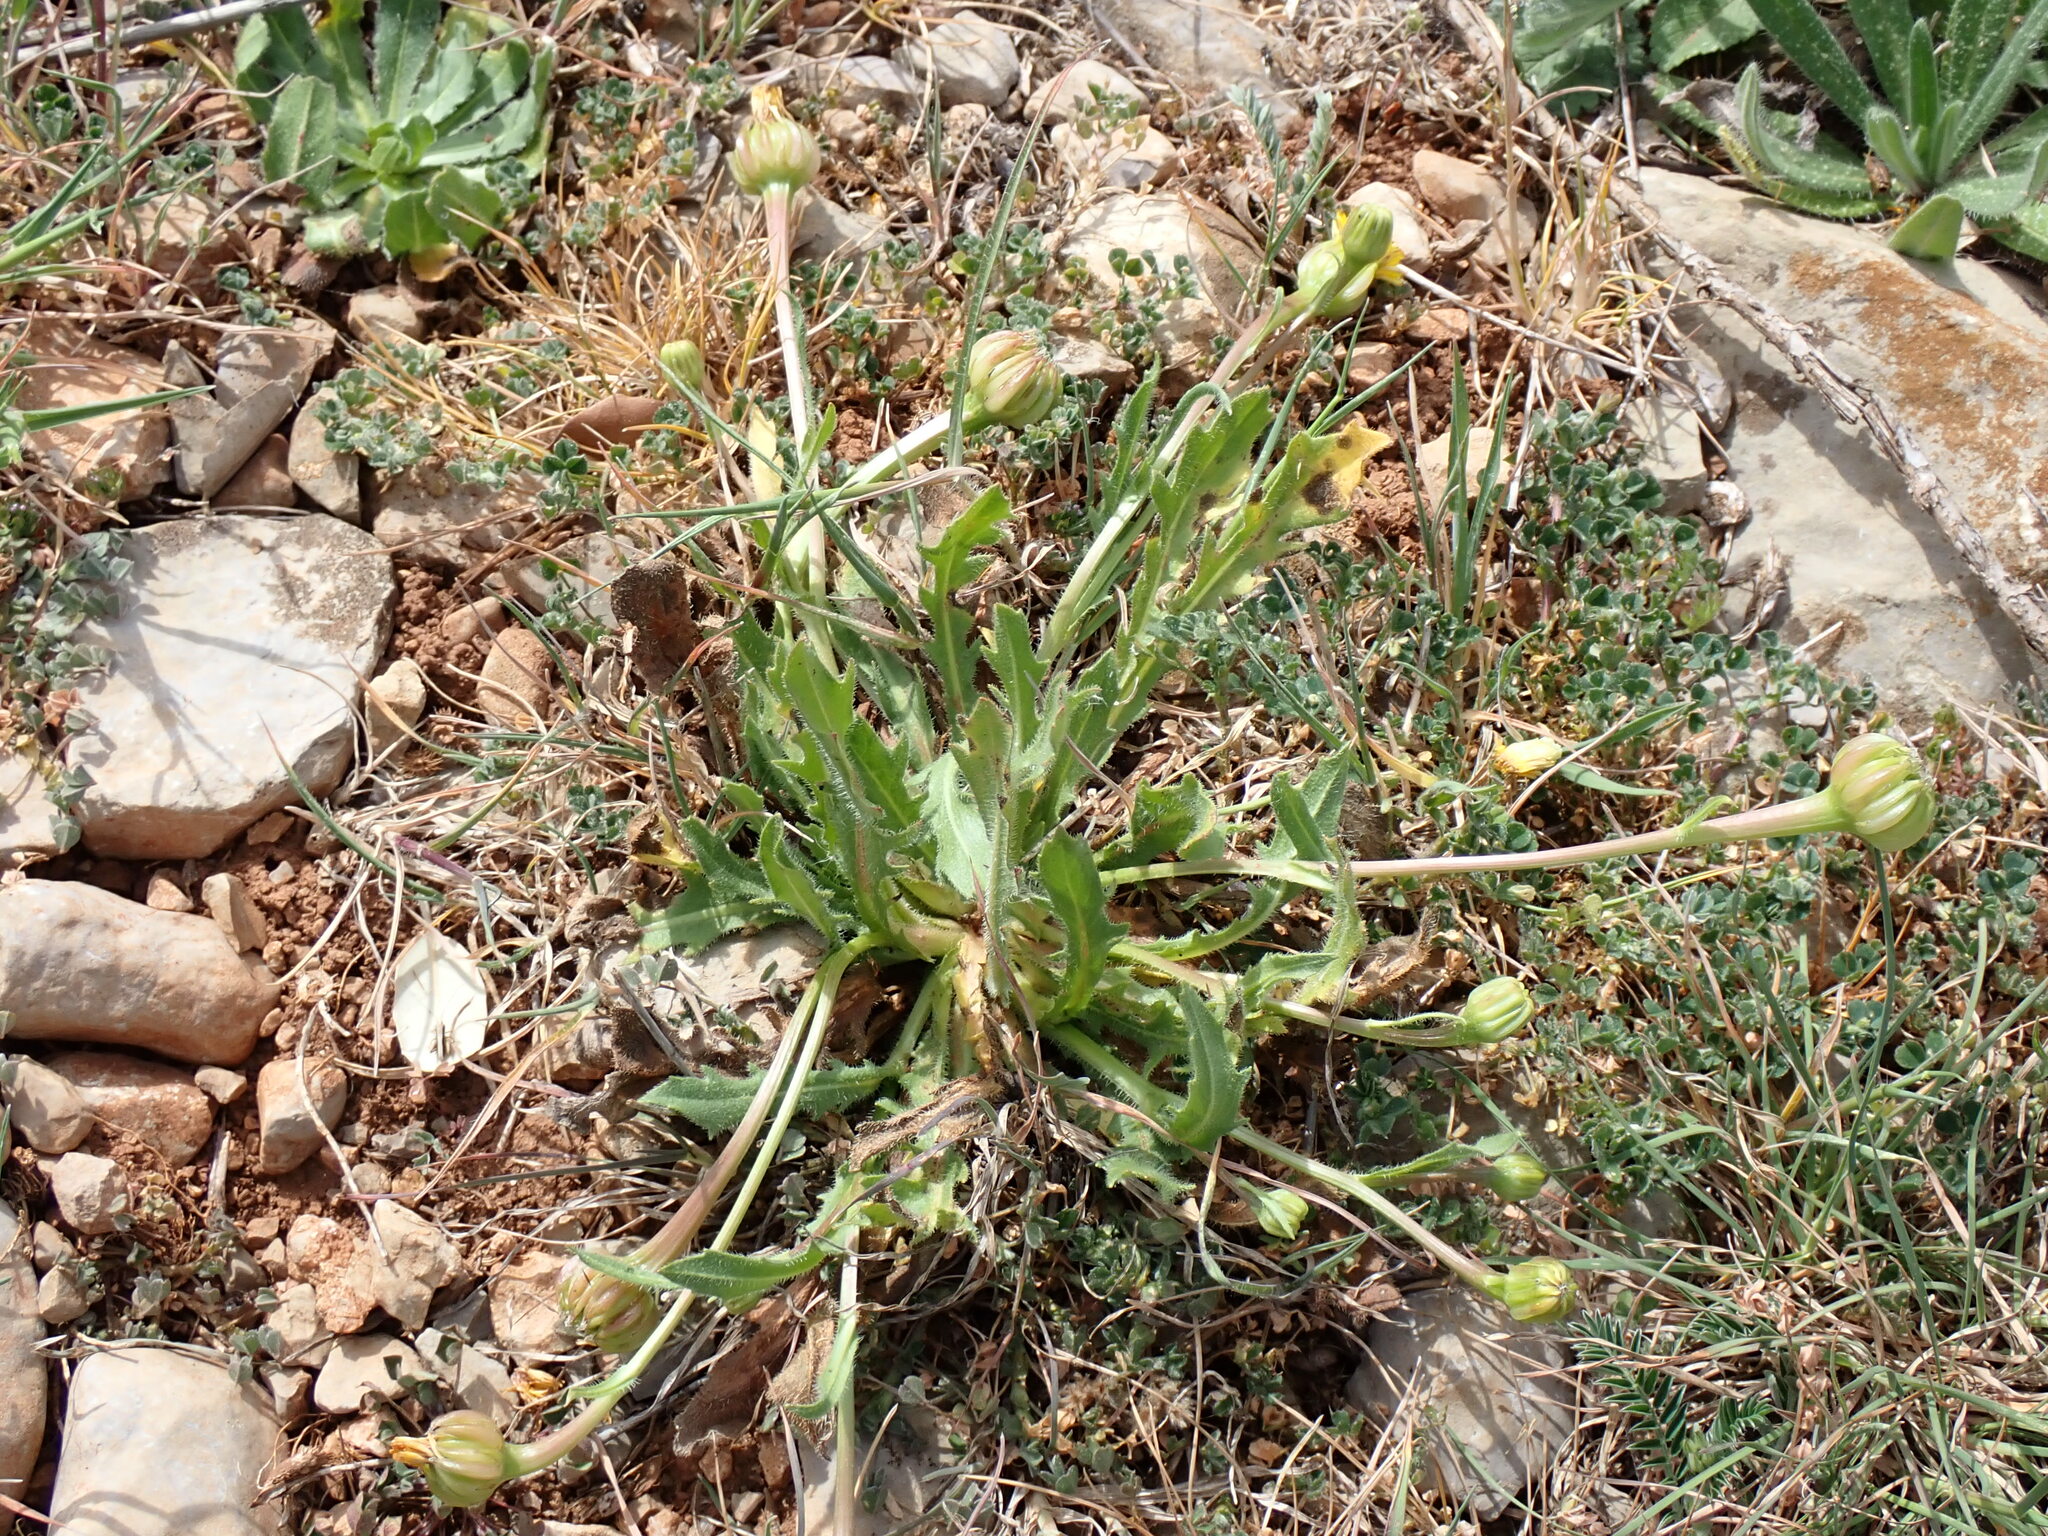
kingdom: Plantae
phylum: Tracheophyta
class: Magnoliopsida
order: Asterales
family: Asteraceae
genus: Hedypnois
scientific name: Hedypnois rhagadioloides
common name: Cretan weed
